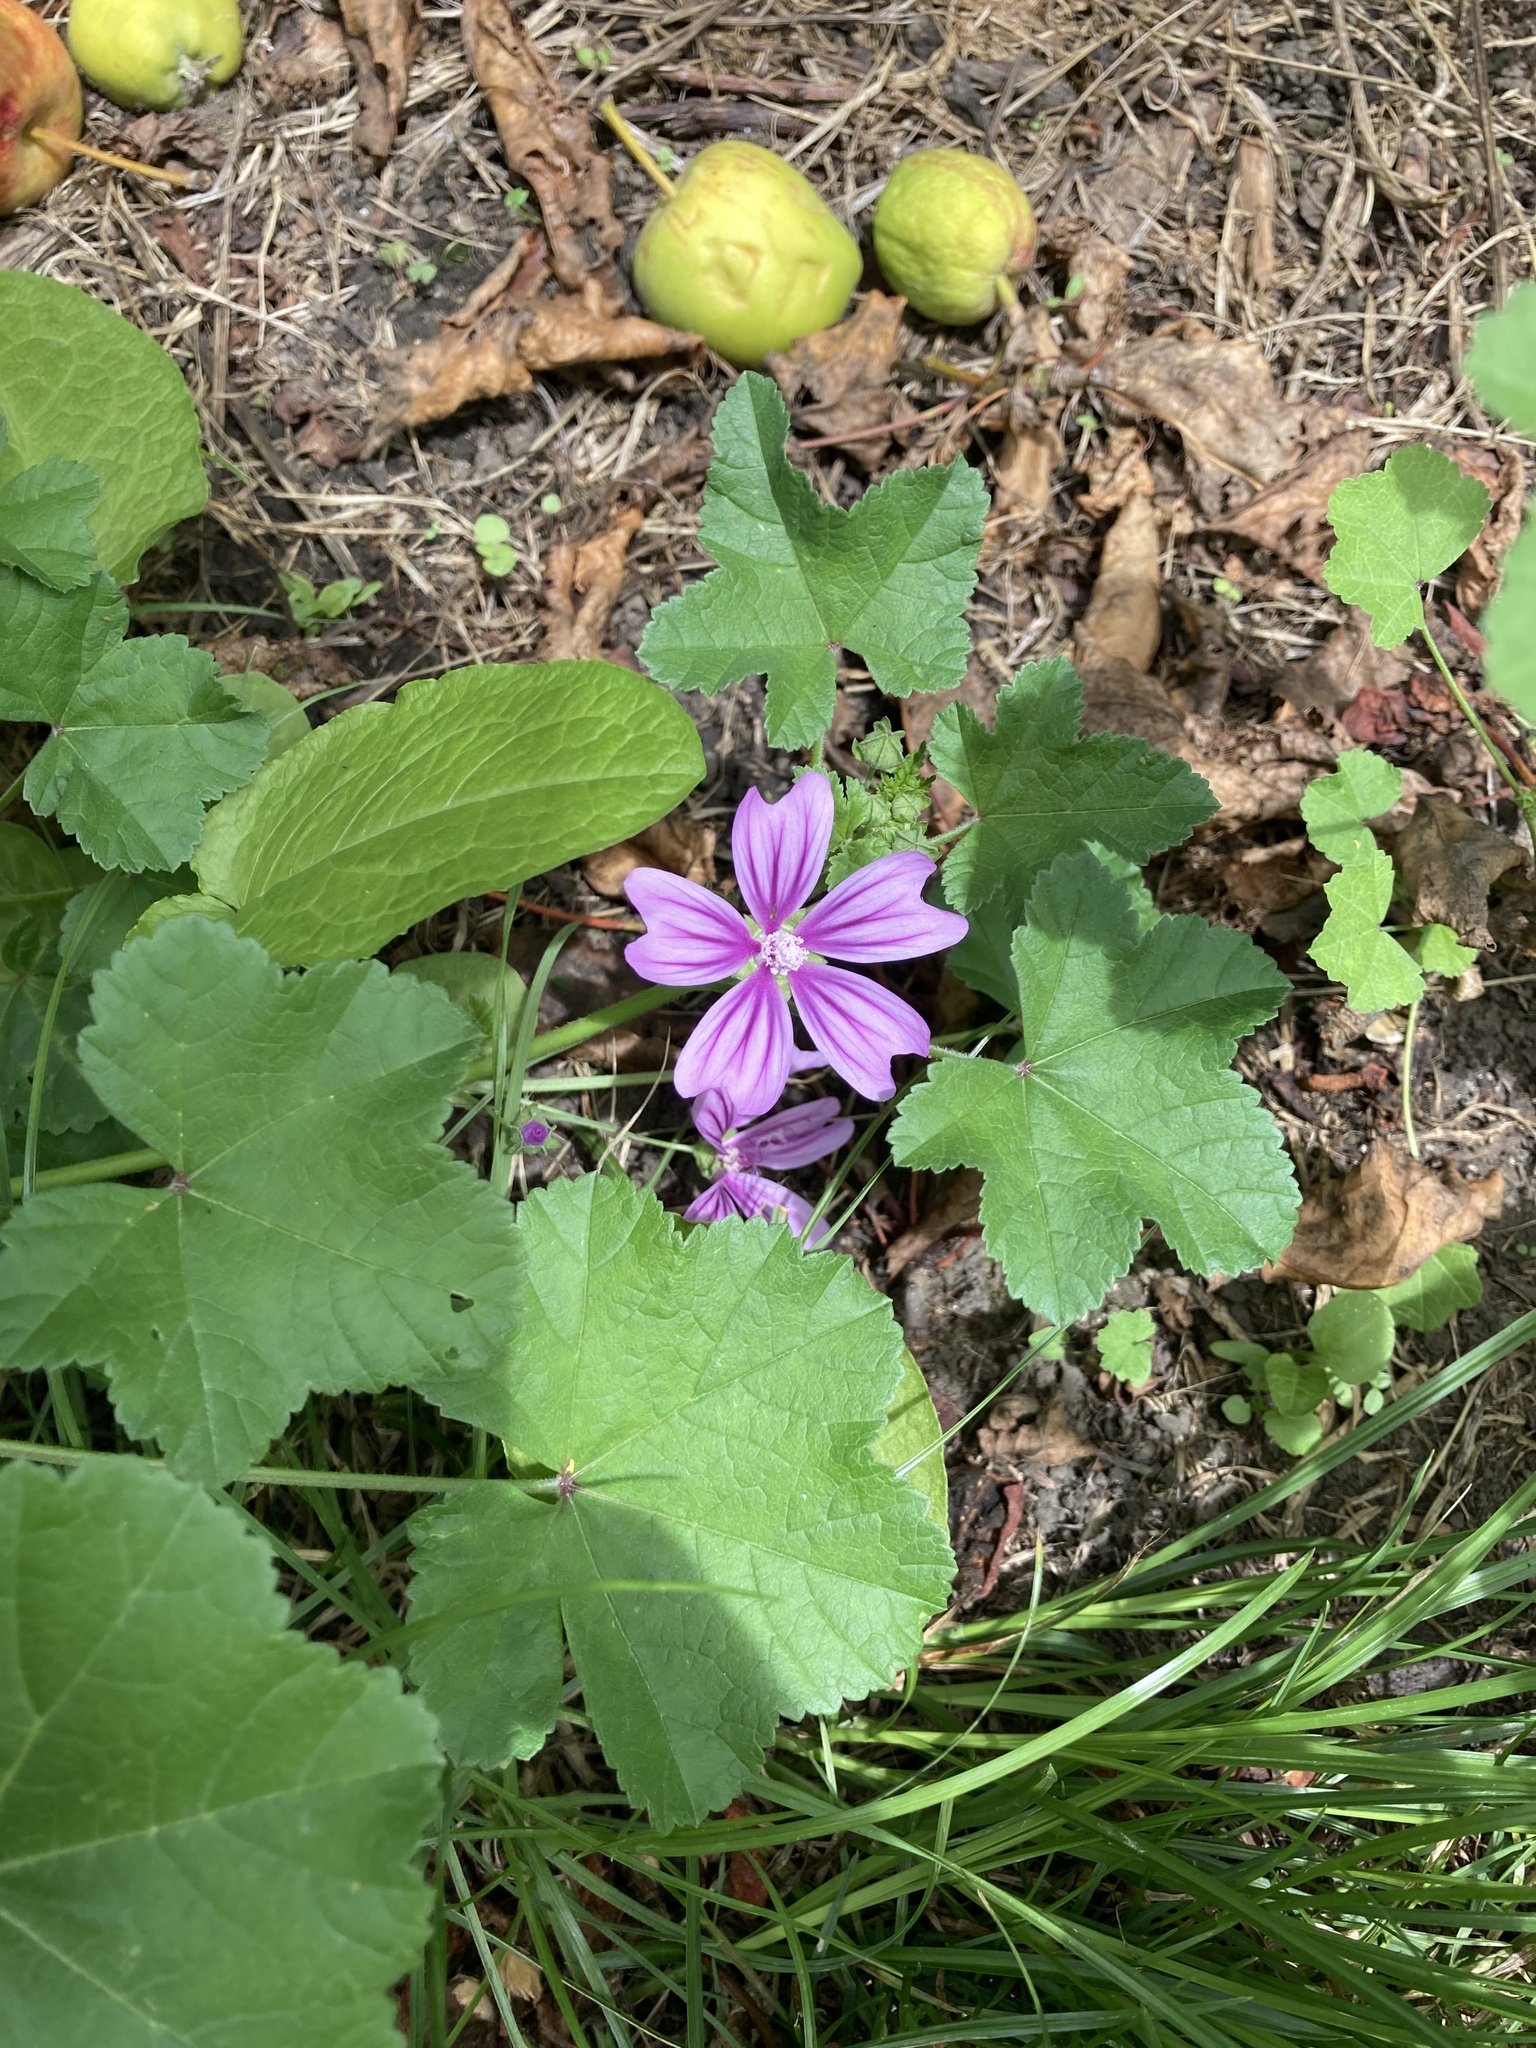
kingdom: Plantae
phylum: Tracheophyta
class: Magnoliopsida
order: Malvales
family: Malvaceae
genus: Malva
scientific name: Malva sylvestris
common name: Common mallow
